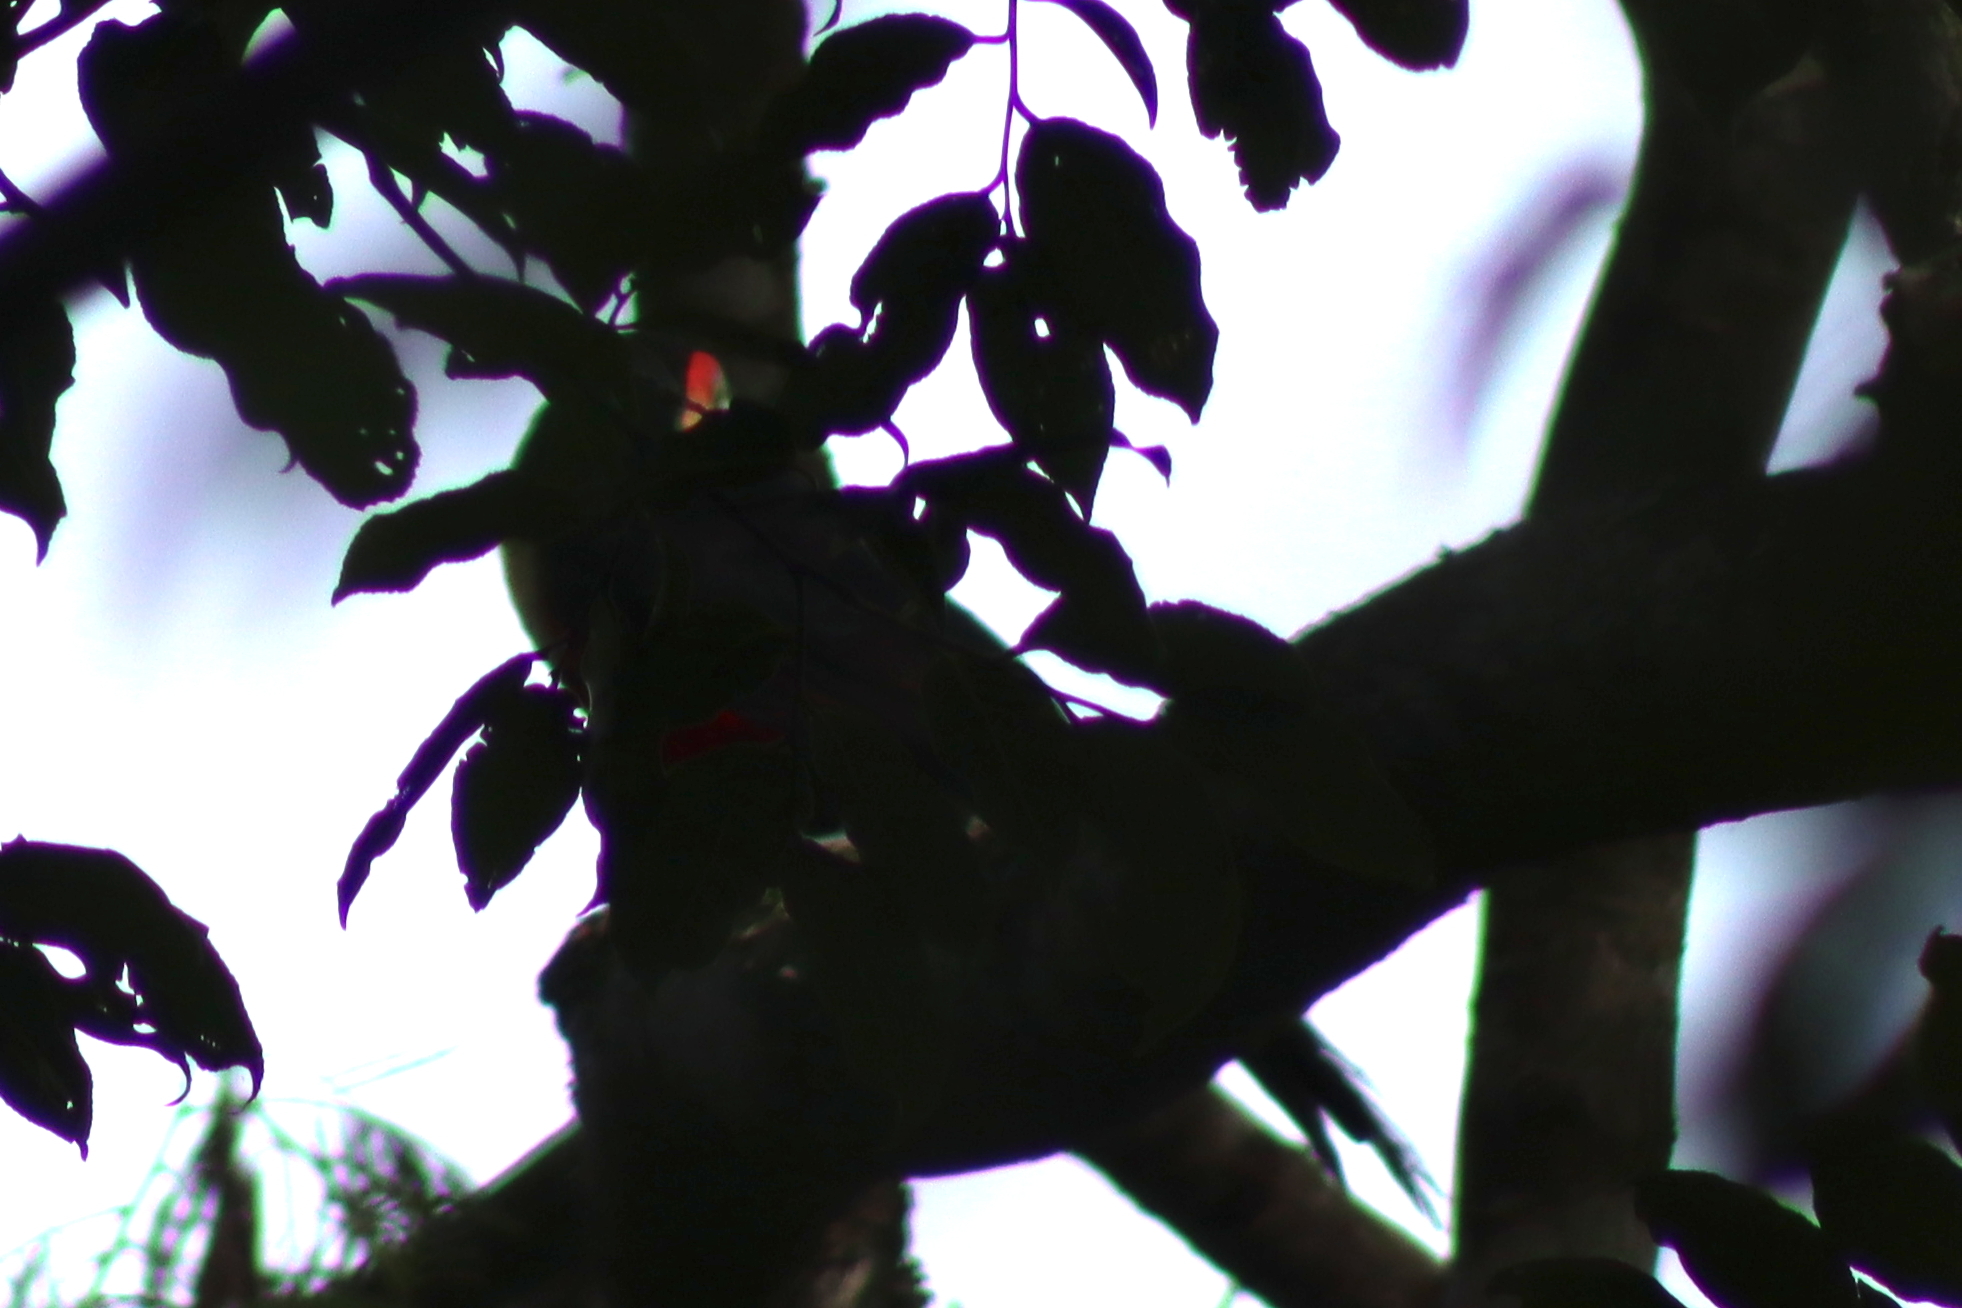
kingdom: Animalia
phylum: Chordata
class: Aves
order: Piciformes
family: Ramphastidae
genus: Ramphastos
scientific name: Ramphastos dicolorus
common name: Green-billed toucan
